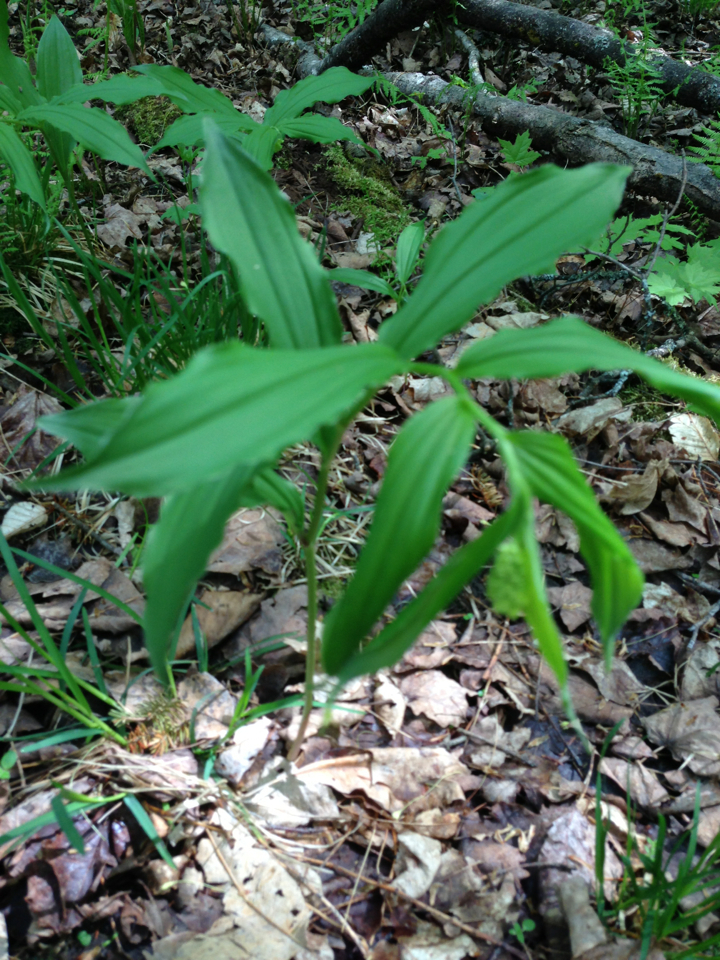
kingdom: Plantae
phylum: Tracheophyta
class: Liliopsida
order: Asparagales
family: Asparagaceae
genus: Maianthemum
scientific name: Maianthemum racemosum
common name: False spikenard
